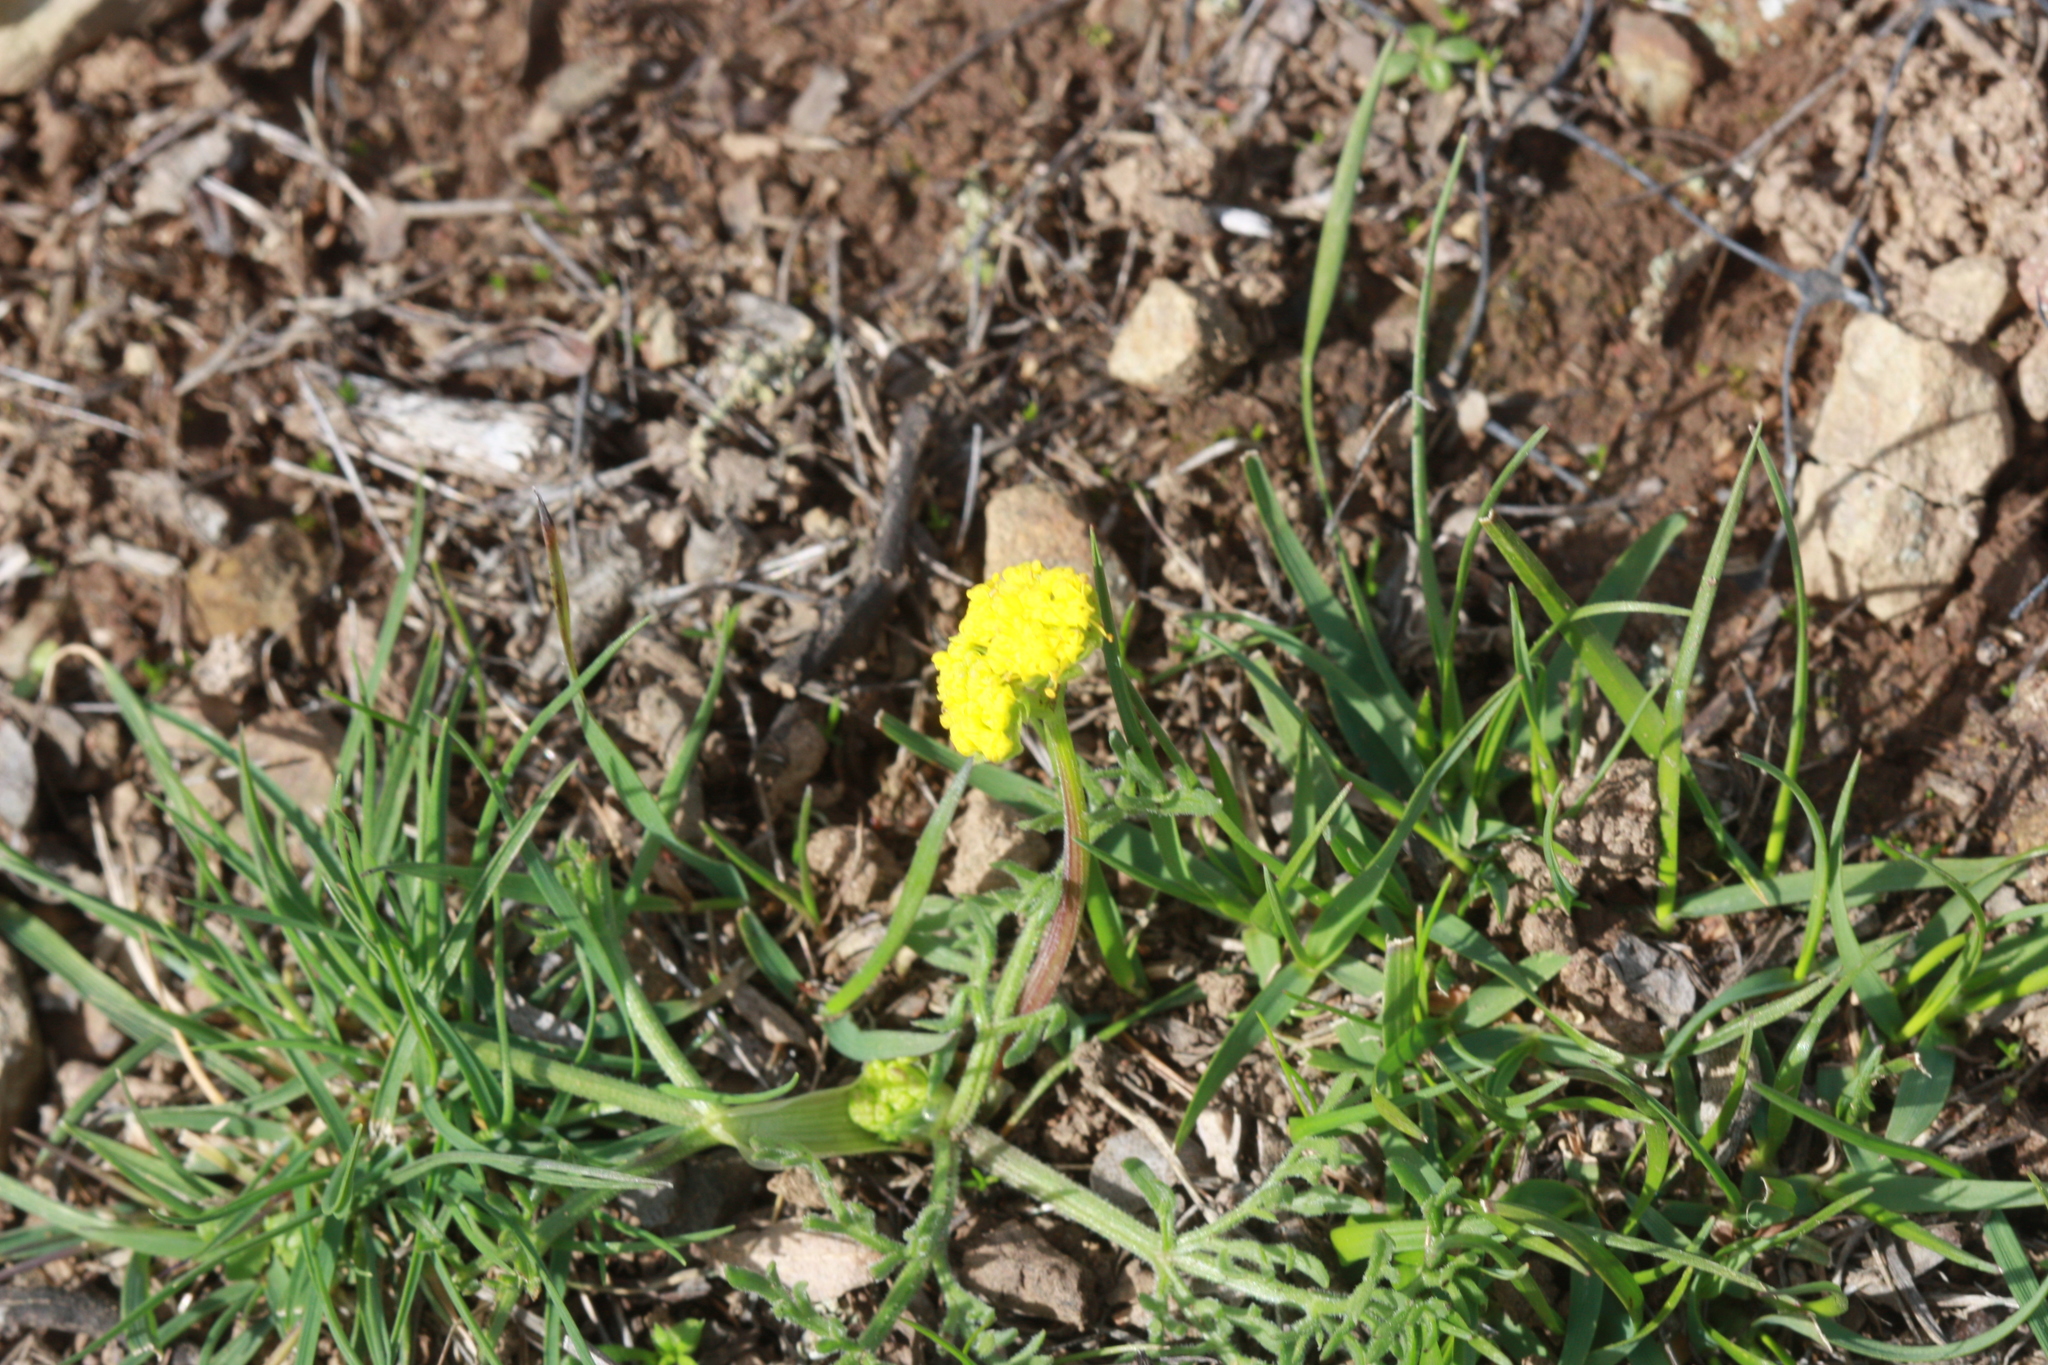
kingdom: Plantae
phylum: Tracheophyta
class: Magnoliopsida
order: Apiales
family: Apiaceae
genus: Lomatium
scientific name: Lomatium utriculatum
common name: Fine-leaf desert-parsley
